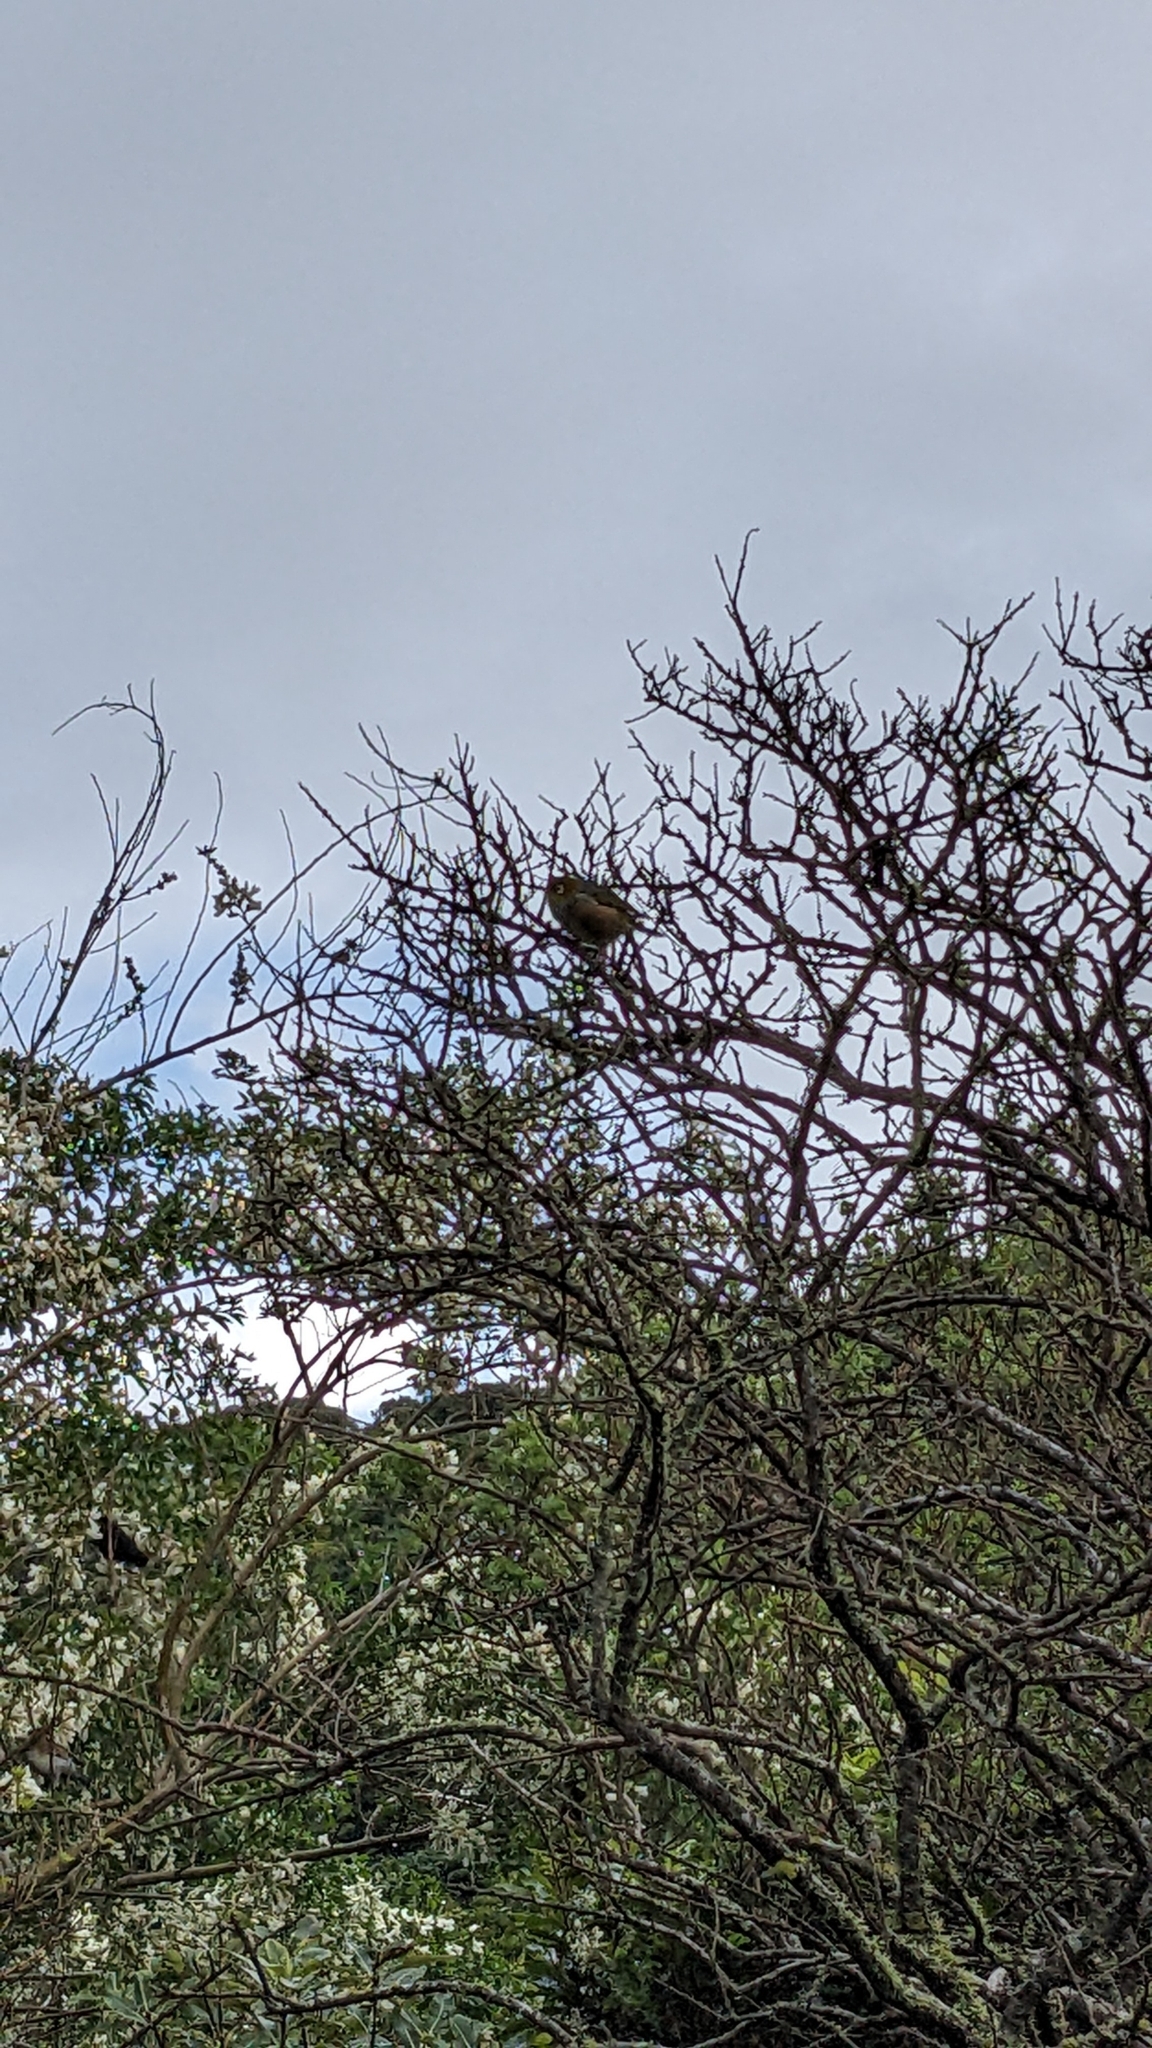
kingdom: Animalia
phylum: Chordata
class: Aves
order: Passeriformes
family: Zosteropidae
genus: Zosterops
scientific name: Zosterops lateralis
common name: Silvereye
